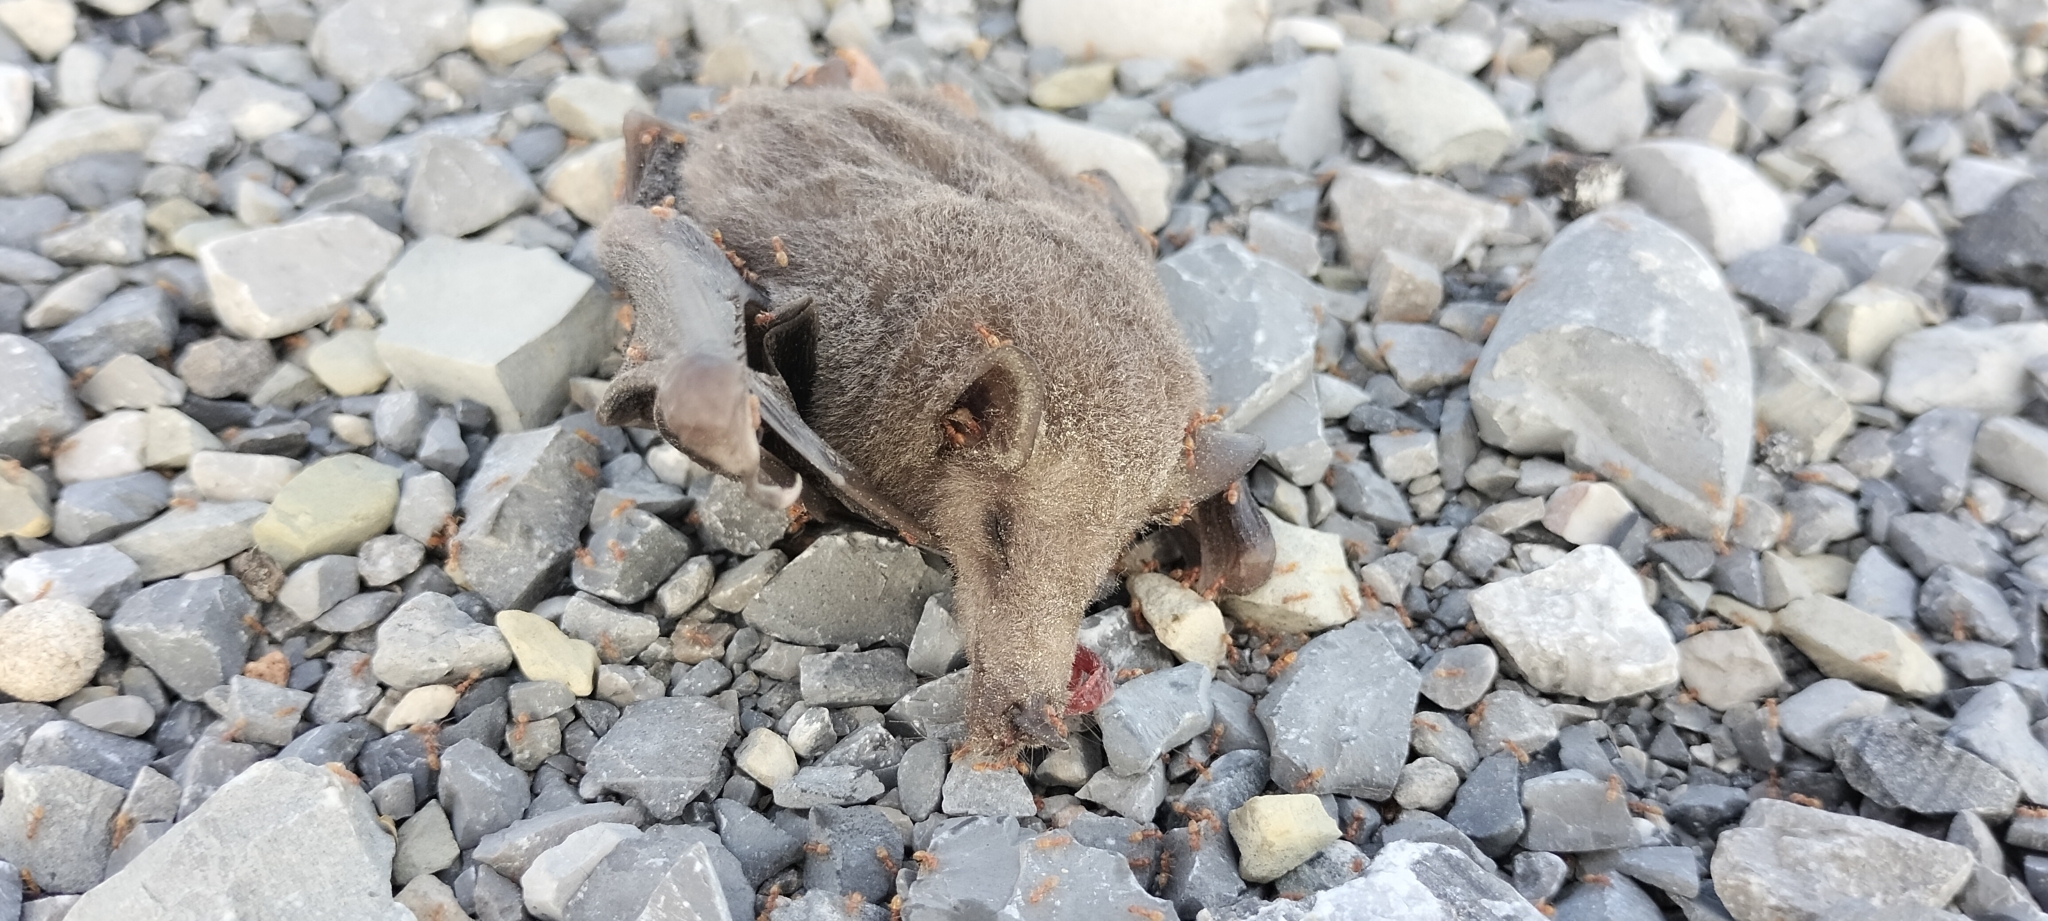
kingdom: Animalia
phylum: Chordata
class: Mammalia
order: Chiroptera
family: Phyllostomidae
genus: Choeronycteris
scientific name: Choeronycteris mexicana
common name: Mexican long-tongued bat
